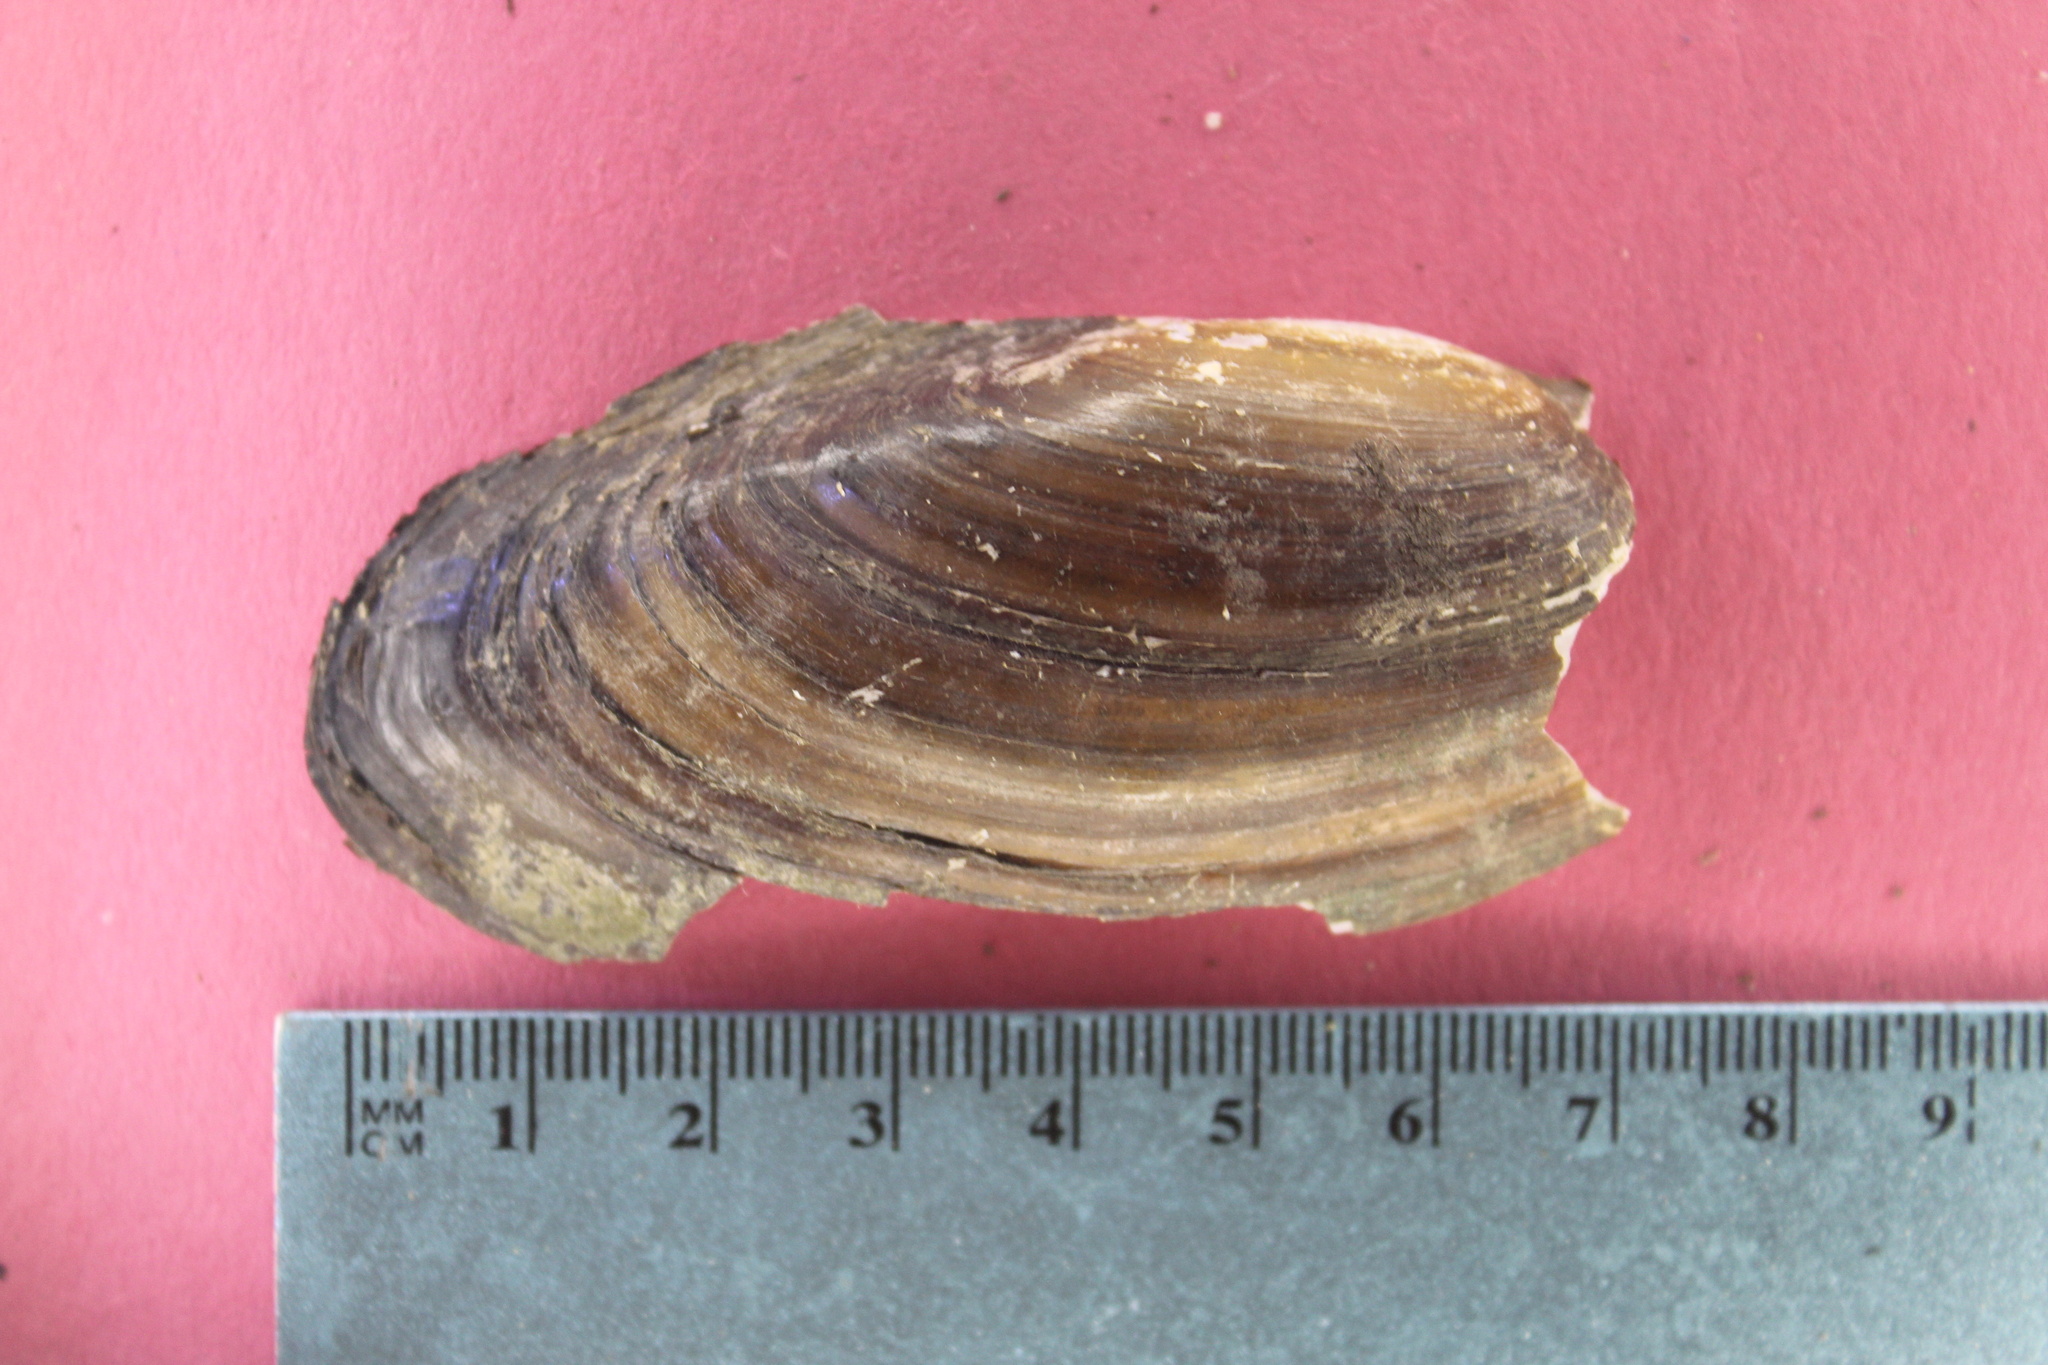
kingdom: Animalia
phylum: Mollusca
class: Bivalvia
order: Unionida
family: Unionidae
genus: Utterbackia
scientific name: Utterbackia imbecillis
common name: Paper pondshell
